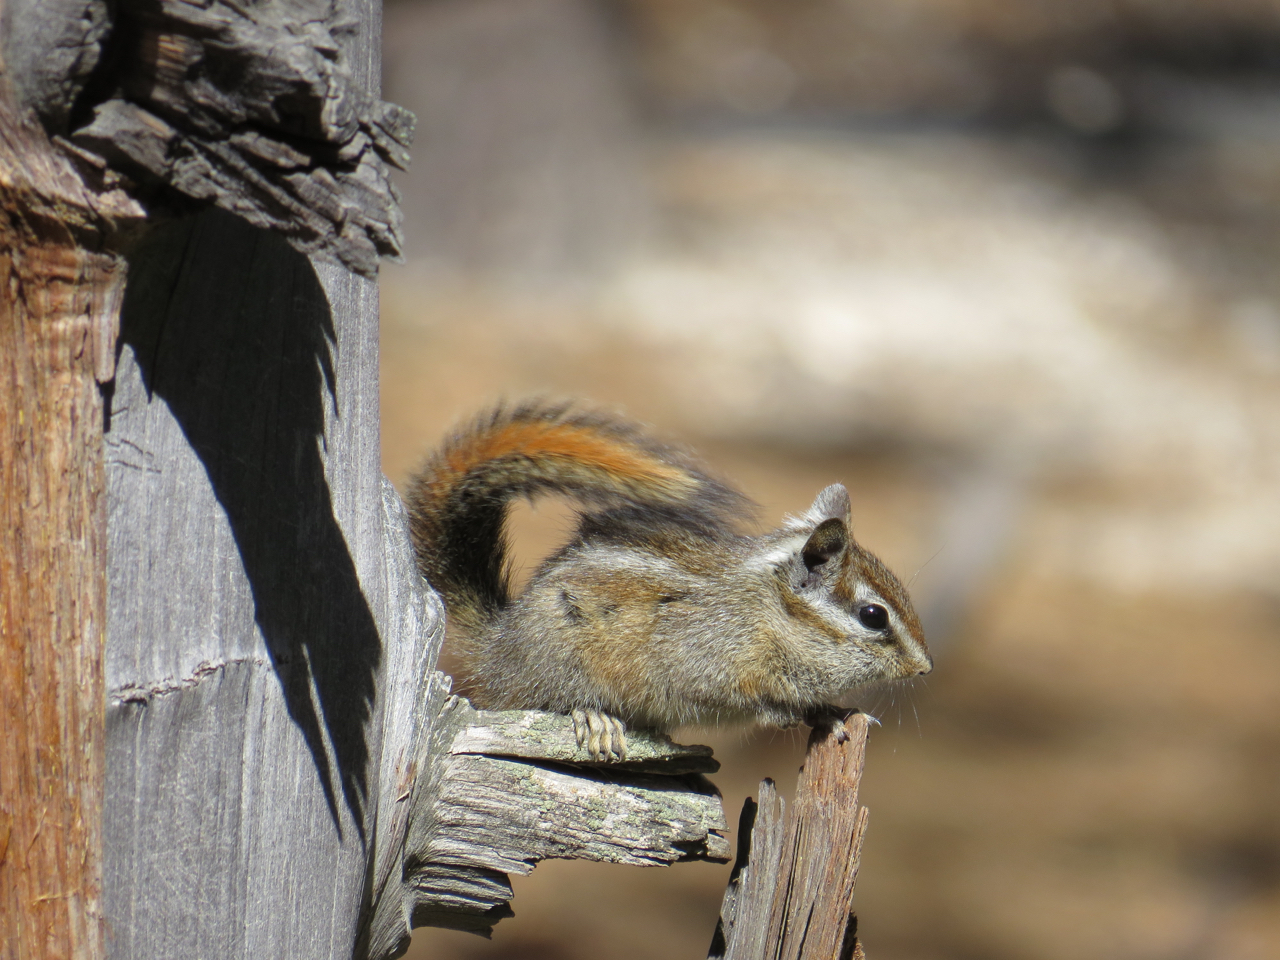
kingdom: Animalia
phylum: Chordata
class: Mammalia
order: Rodentia
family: Sciuridae
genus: Tamias
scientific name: Tamias merriami
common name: Merriam's chipmunk
